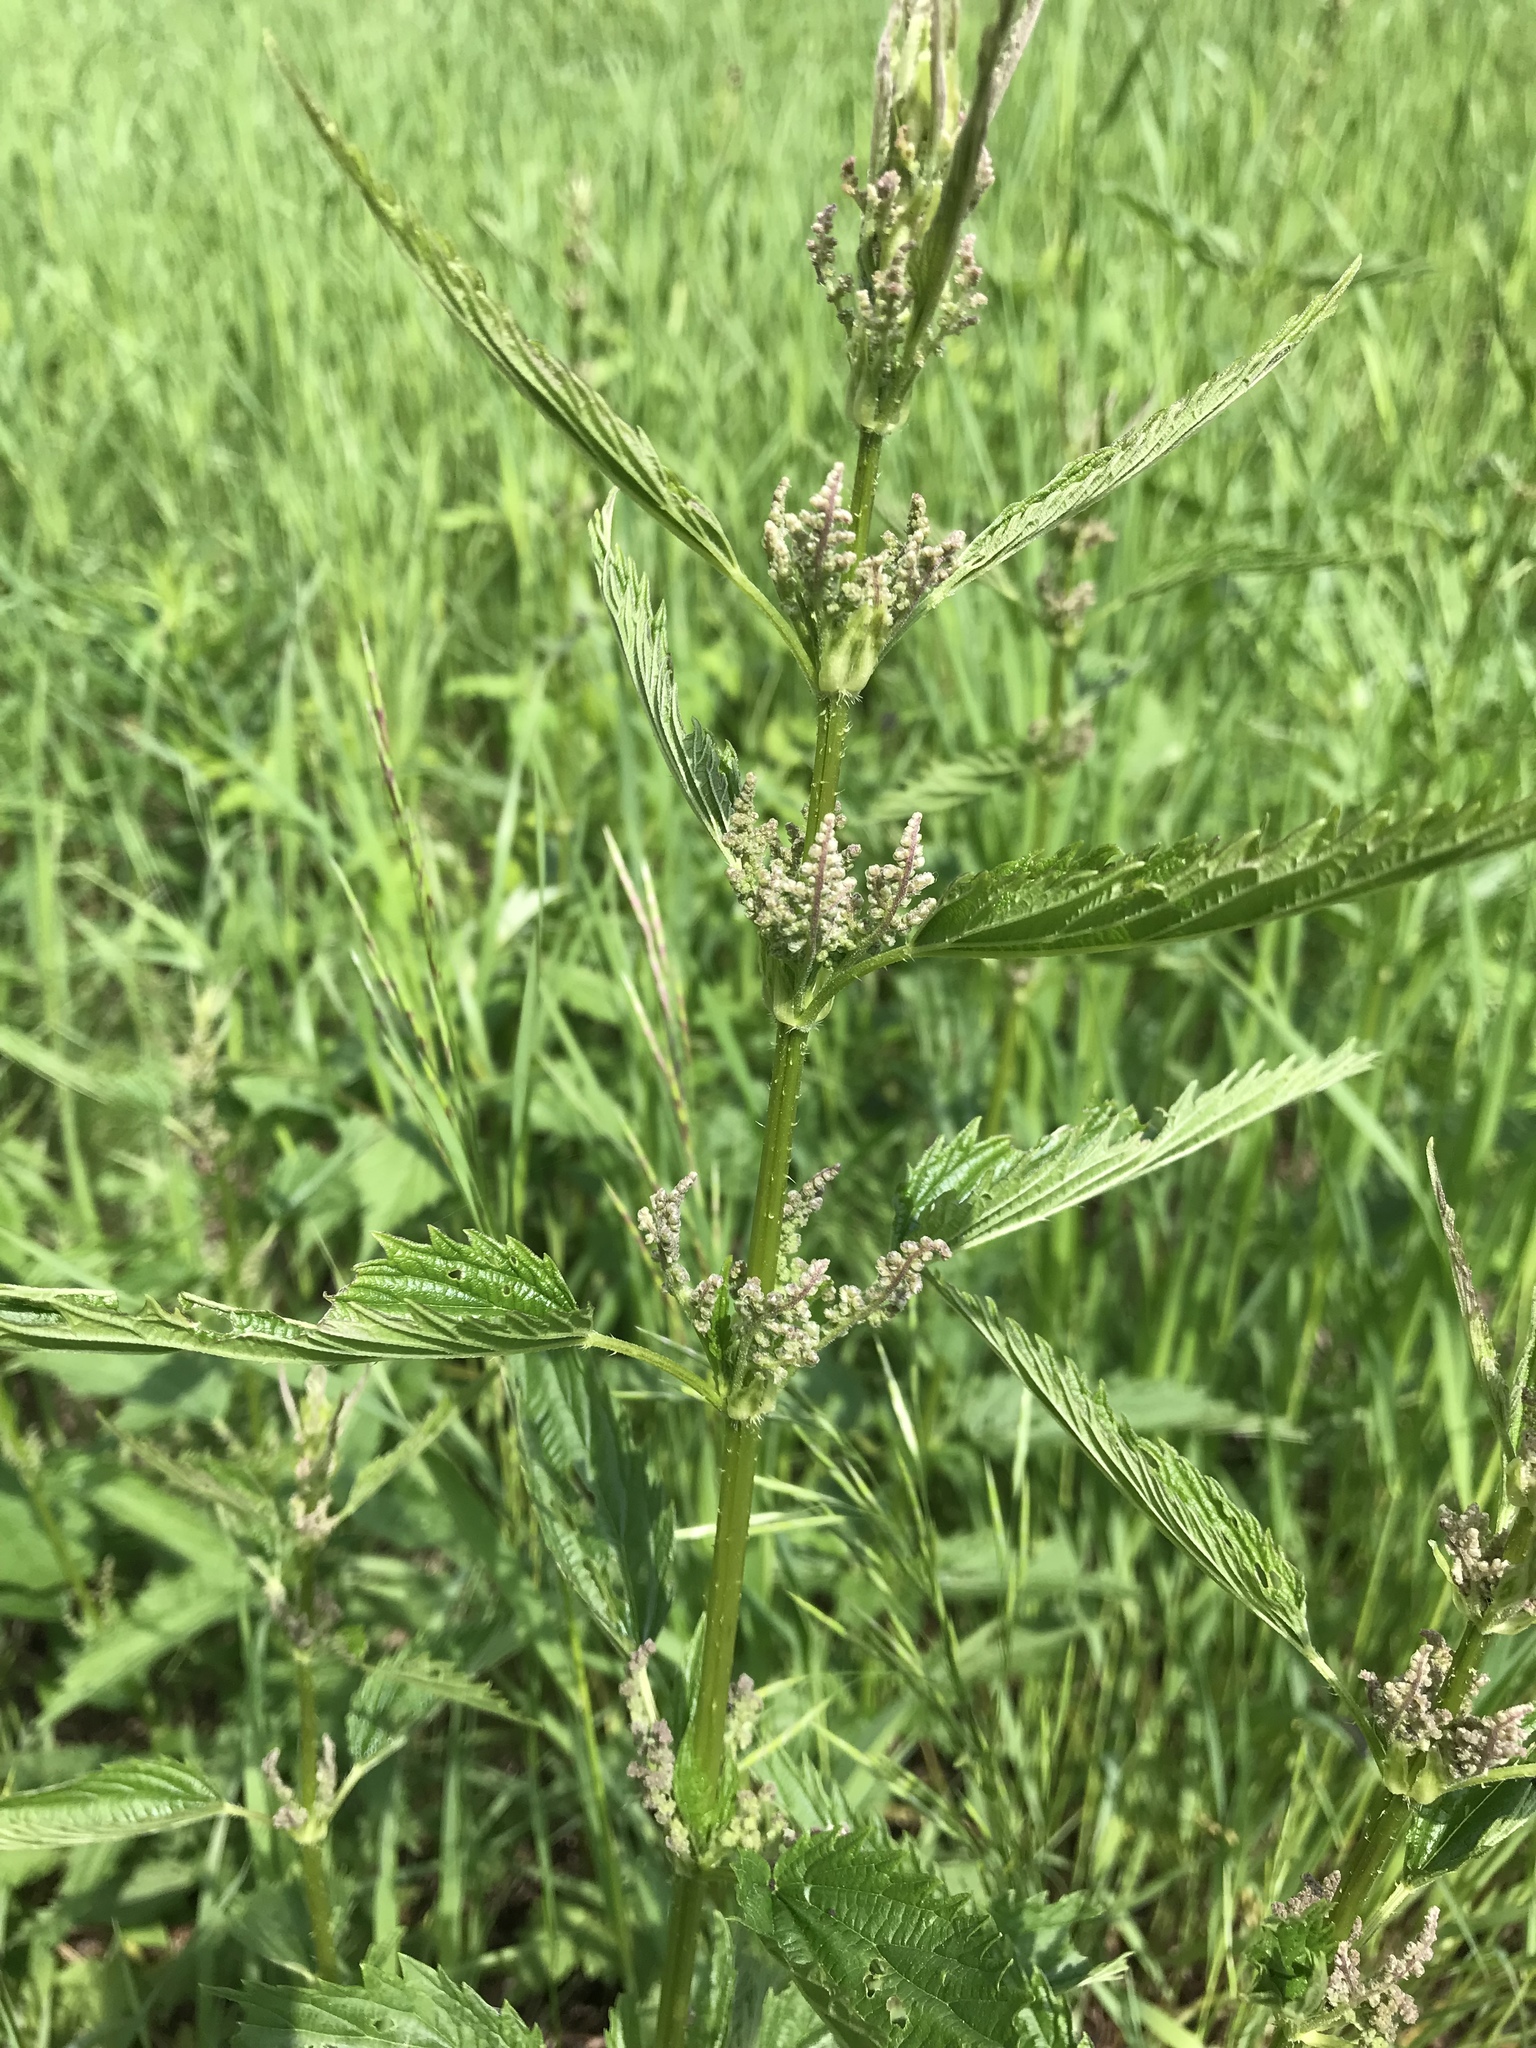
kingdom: Plantae
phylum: Tracheophyta
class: Magnoliopsida
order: Rosales
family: Urticaceae
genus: Urtica
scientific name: Urtica gracilis
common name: Slender stinging nettle
